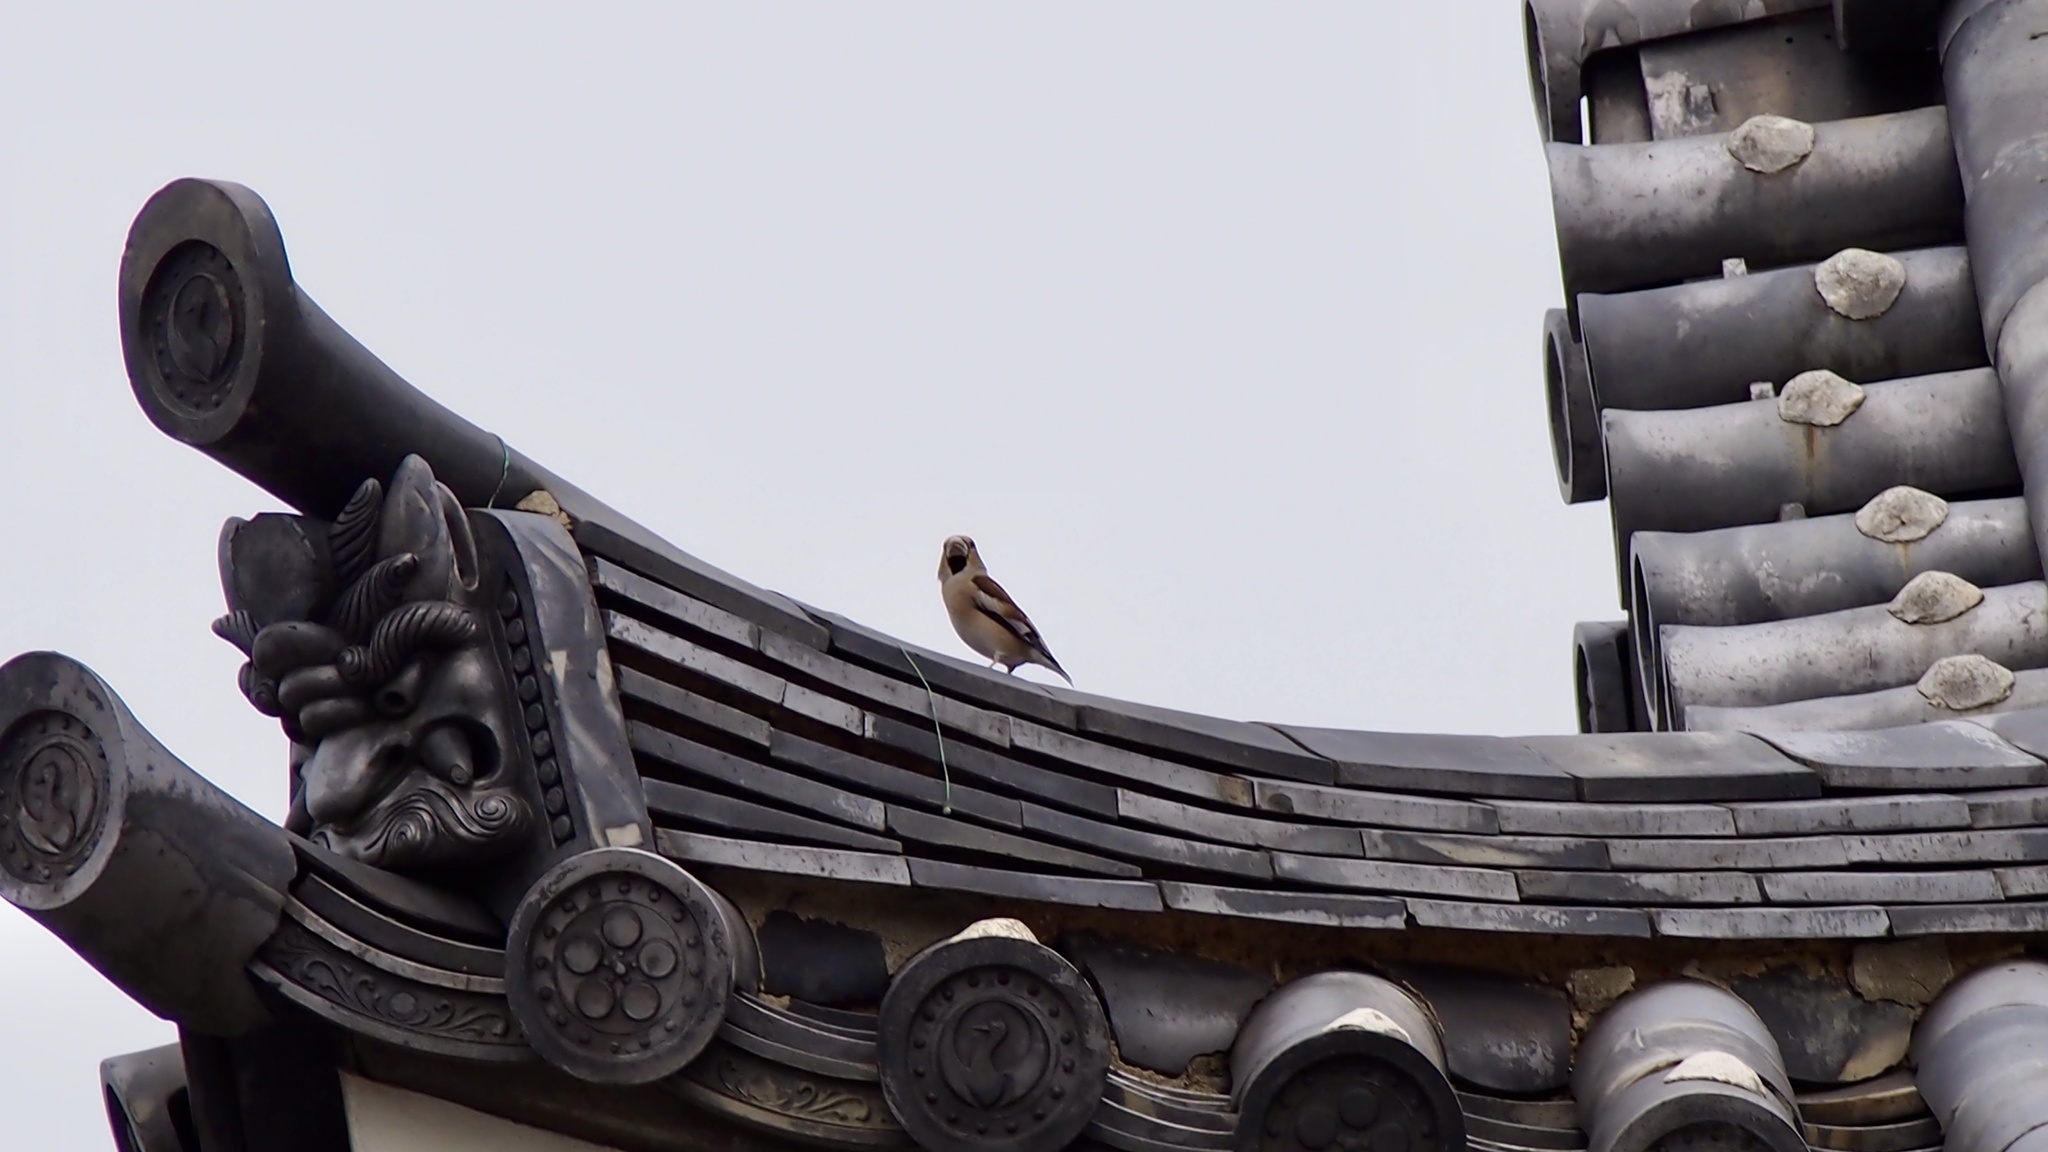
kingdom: Animalia
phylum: Chordata
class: Aves
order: Passeriformes
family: Fringillidae
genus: Coccothraustes
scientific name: Coccothraustes coccothraustes
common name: Hawfinch
